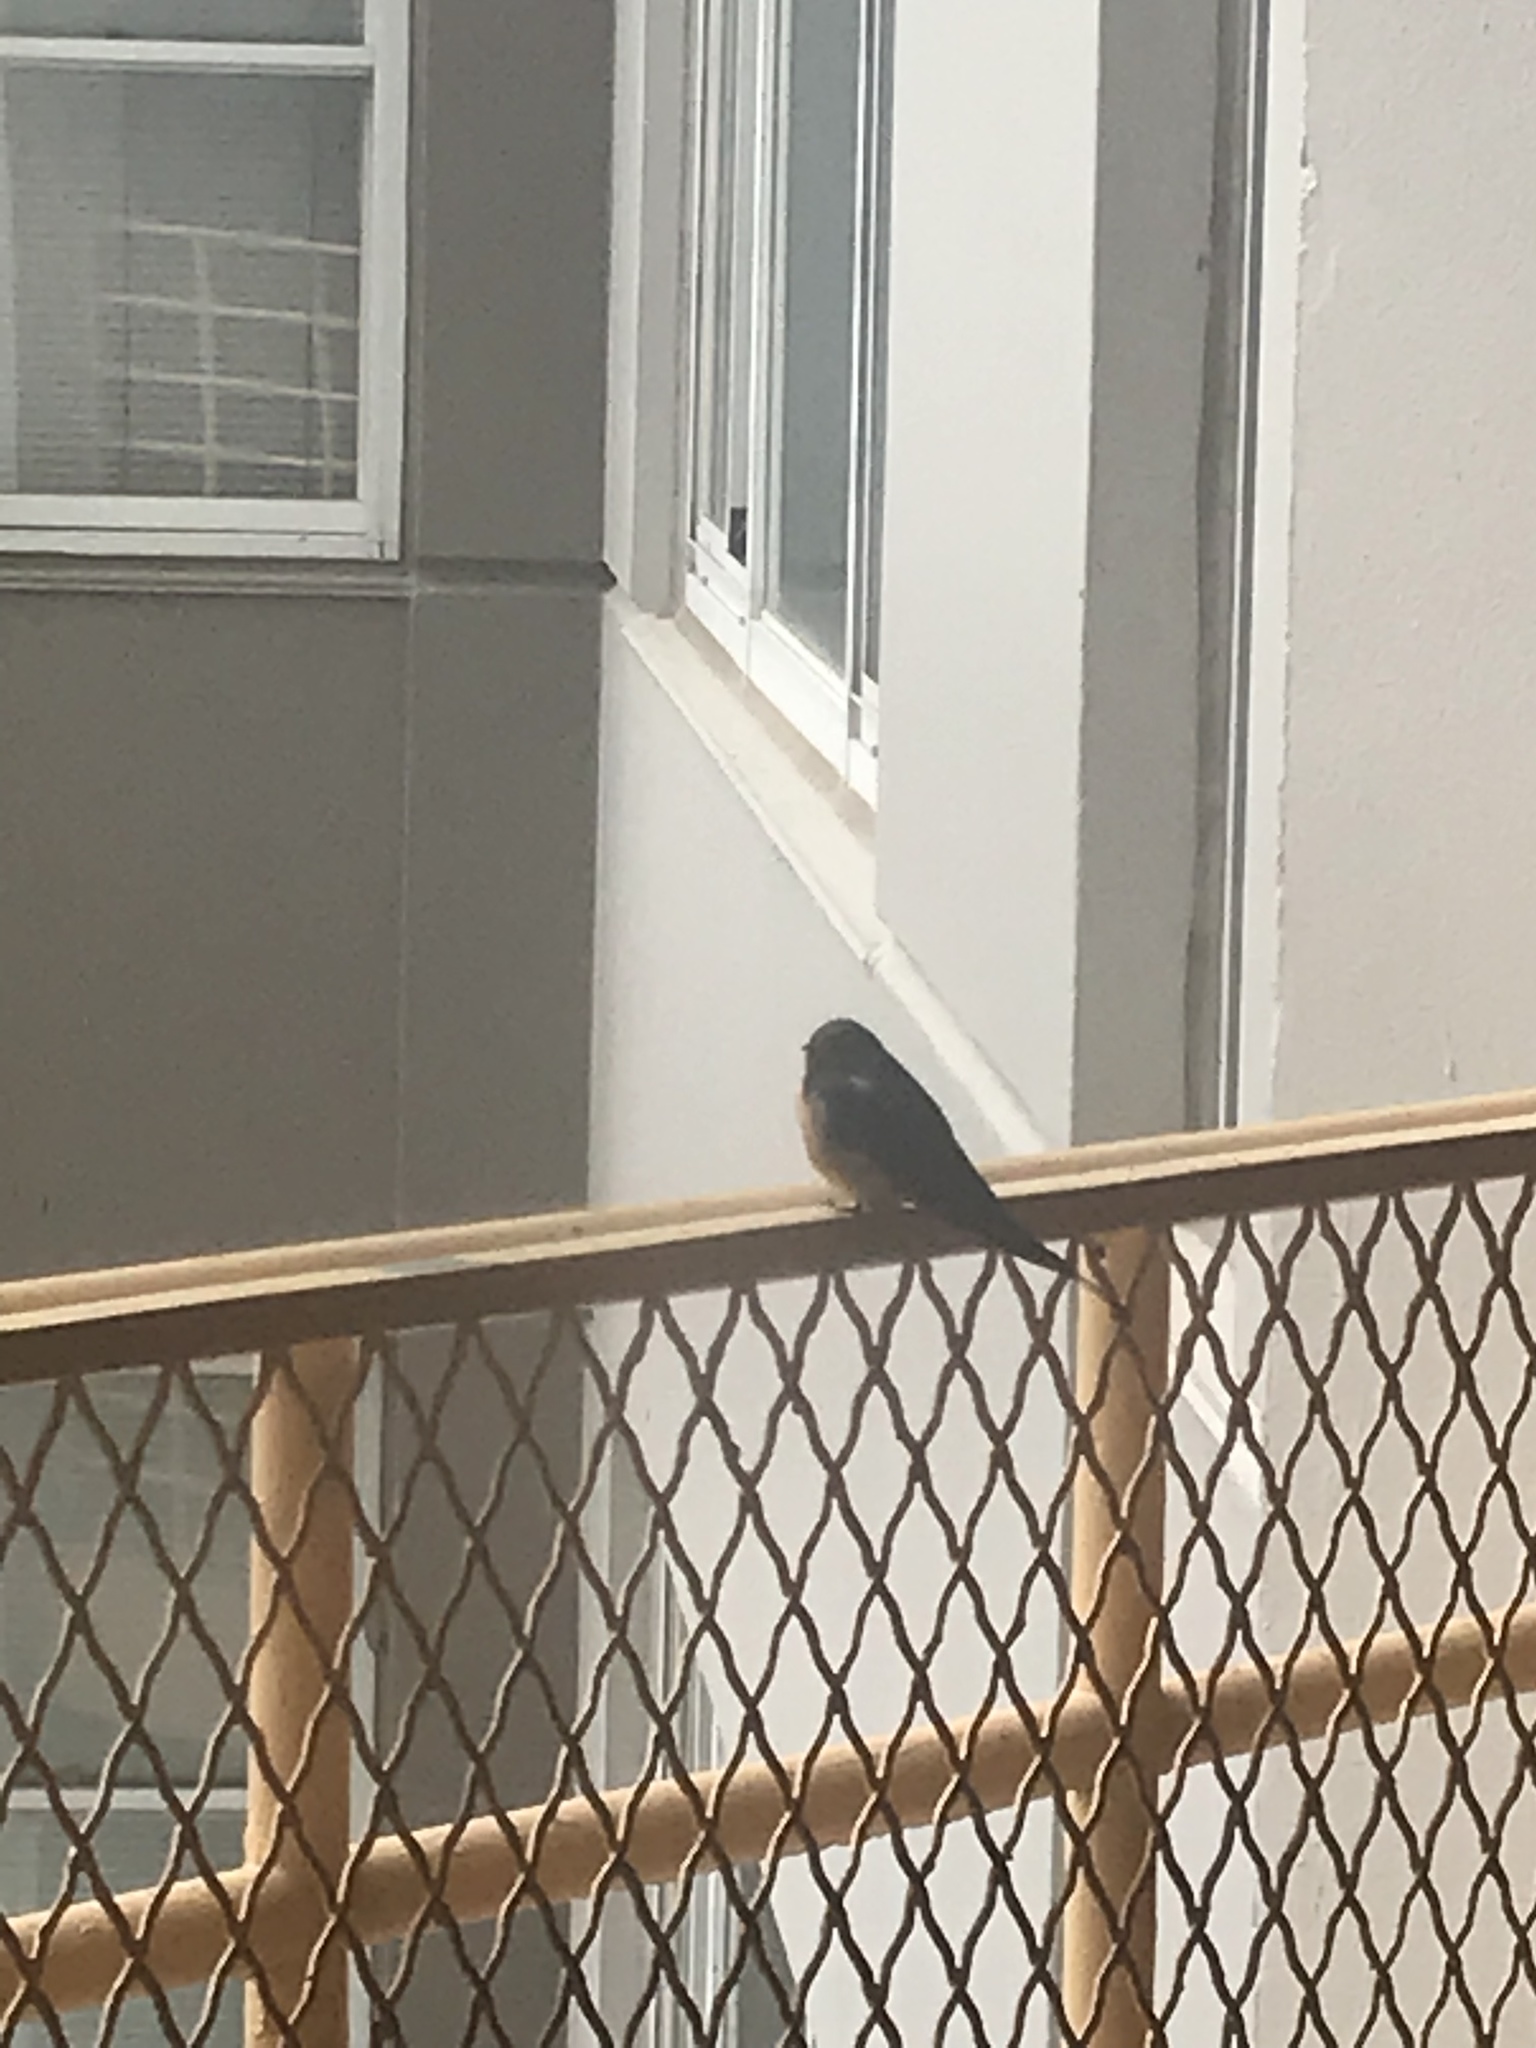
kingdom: Animalia
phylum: Chordata
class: Aves
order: Passeriformes
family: Hirundinidae
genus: Hirundo
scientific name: Hirundo rustica
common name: Barn swallow
